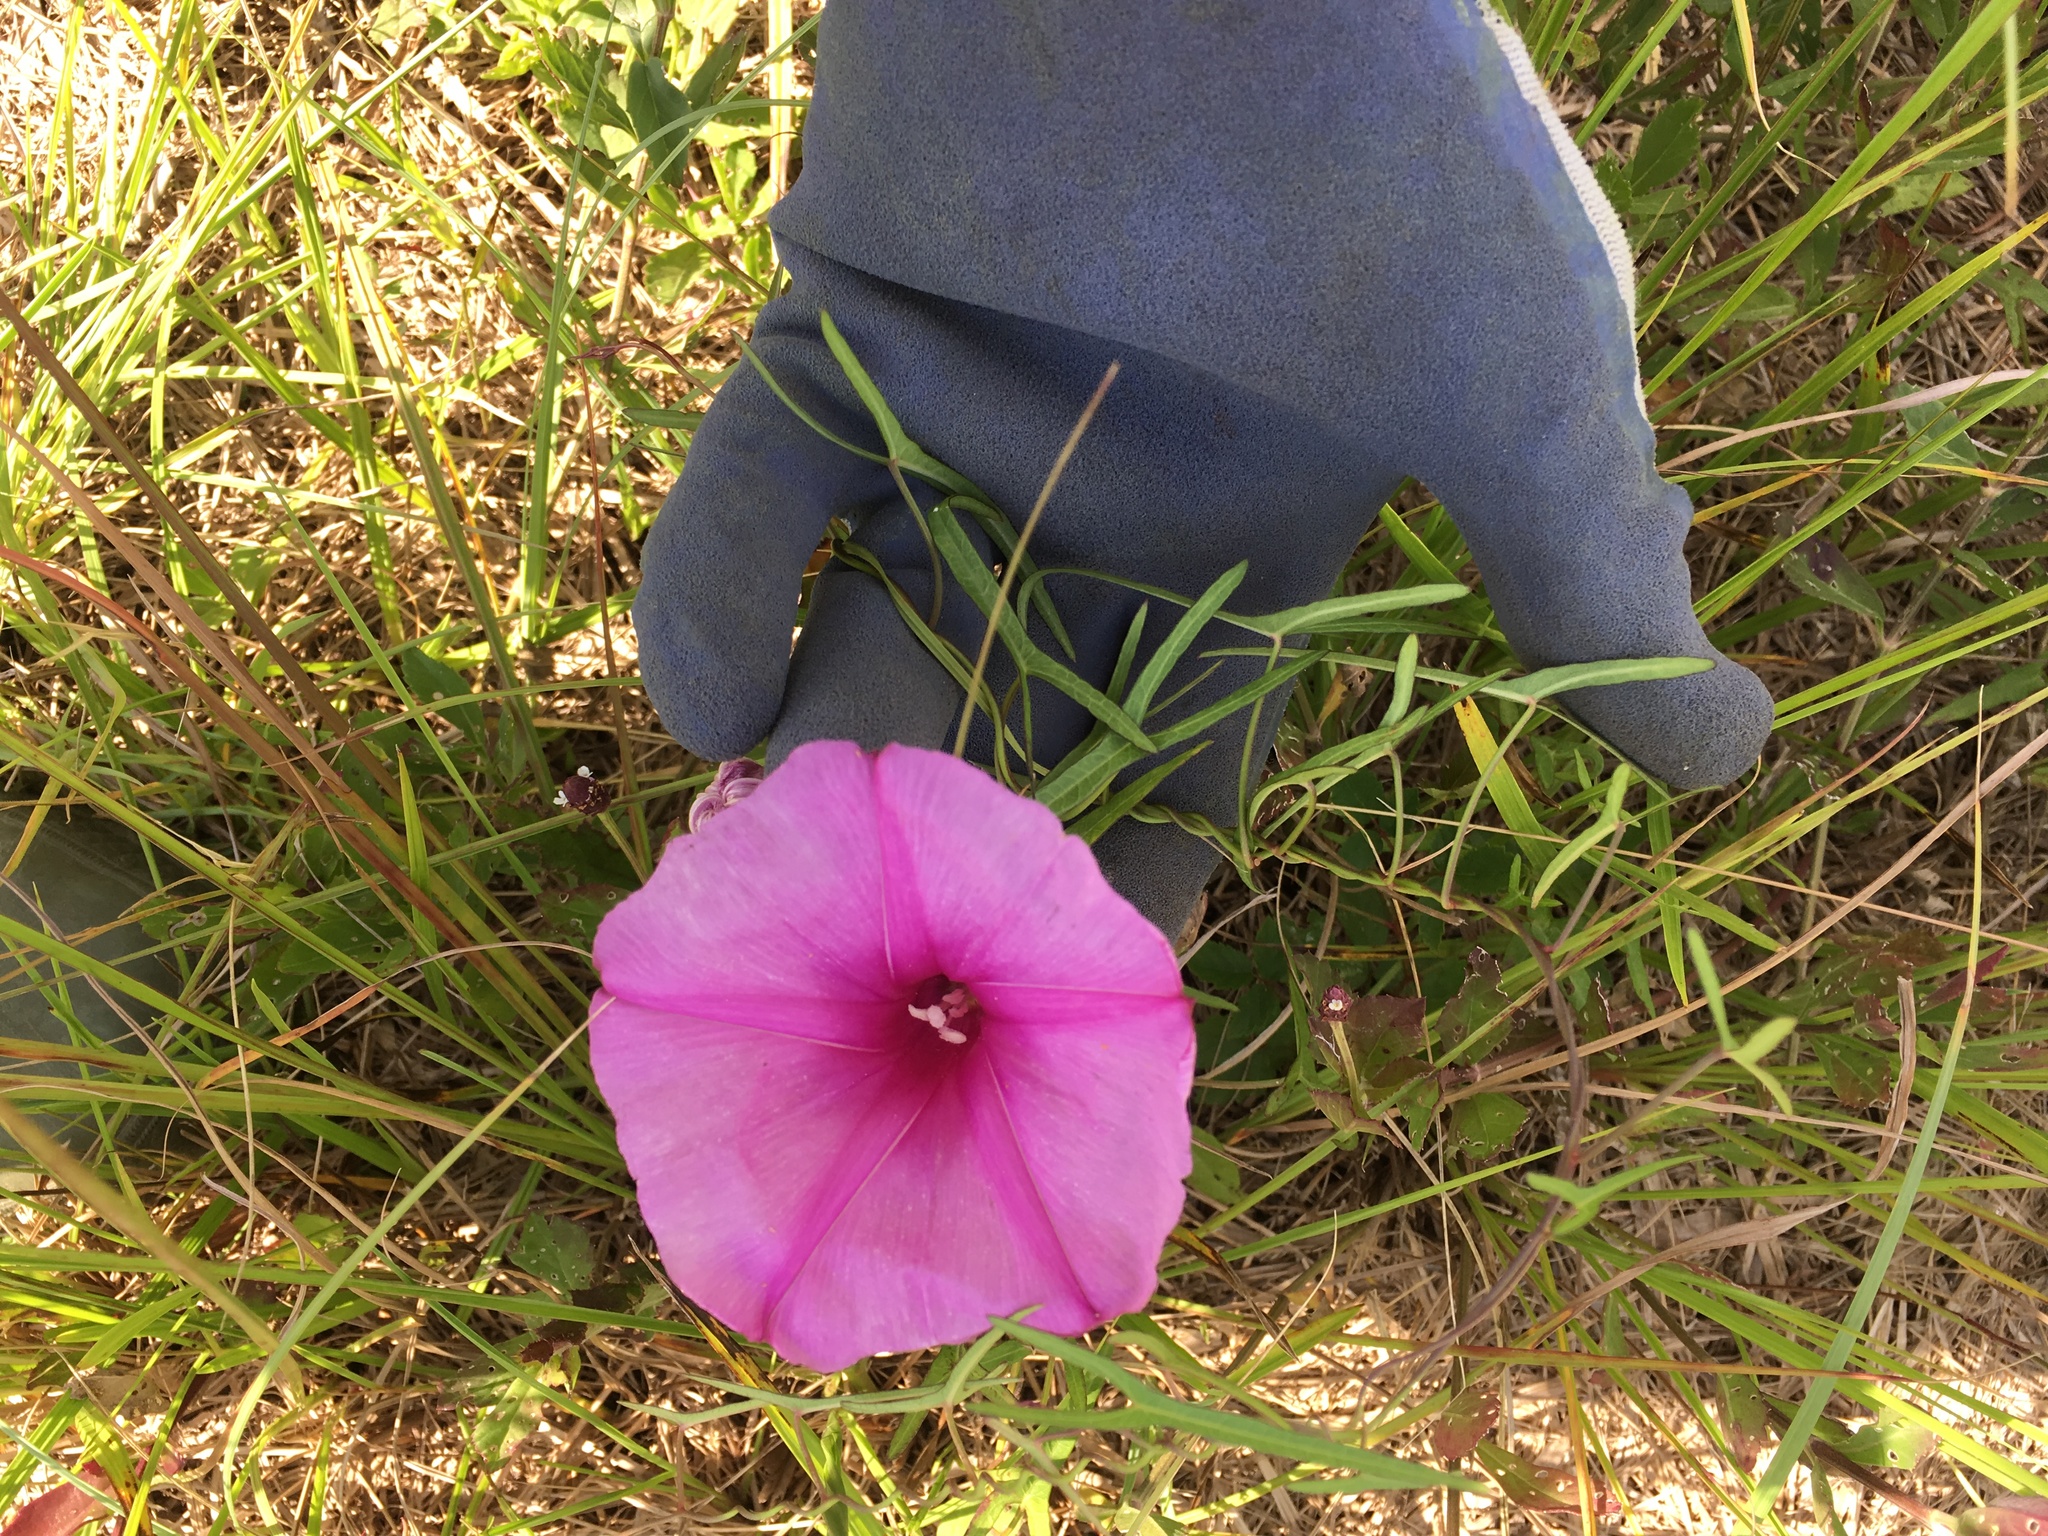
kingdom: Plantae
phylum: Tracheophyta
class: Magnoliopsida
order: Solanales
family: Convolvulaceae
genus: Ipomoea
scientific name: Ipomoea sagittata
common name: Saltmarsh morning glory
